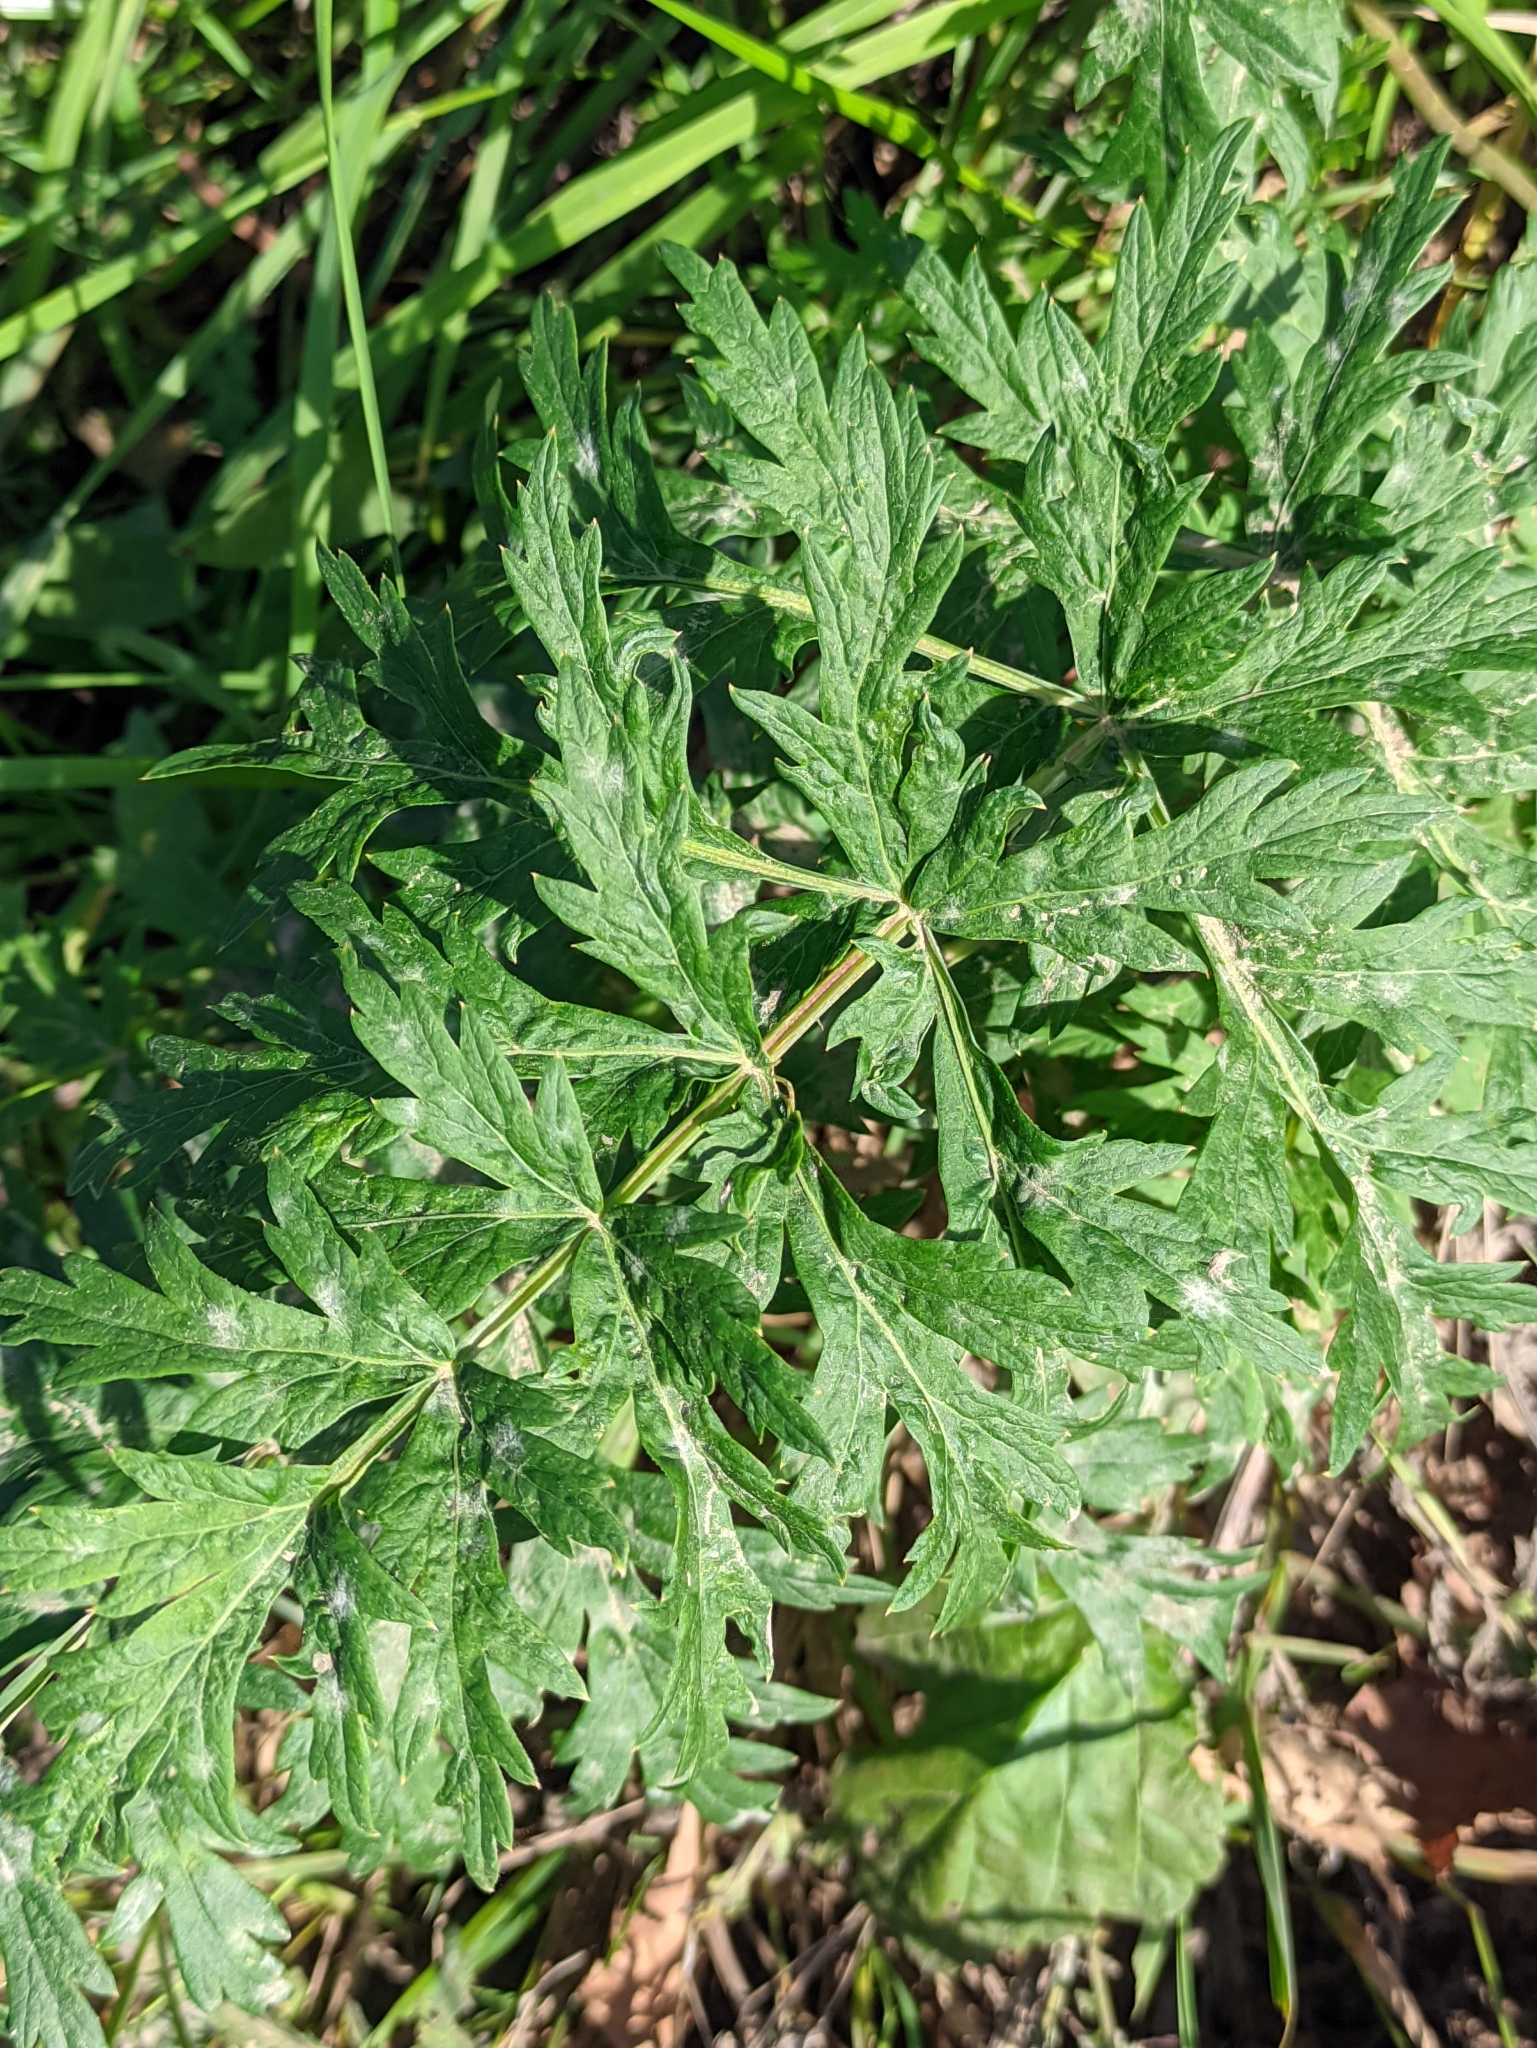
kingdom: Plantae
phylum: Tracheophyta
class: Magnoliopsida
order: Apiales
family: Apiaceae
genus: Seseli
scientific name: Seseli libanotis
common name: Mooncarrot
